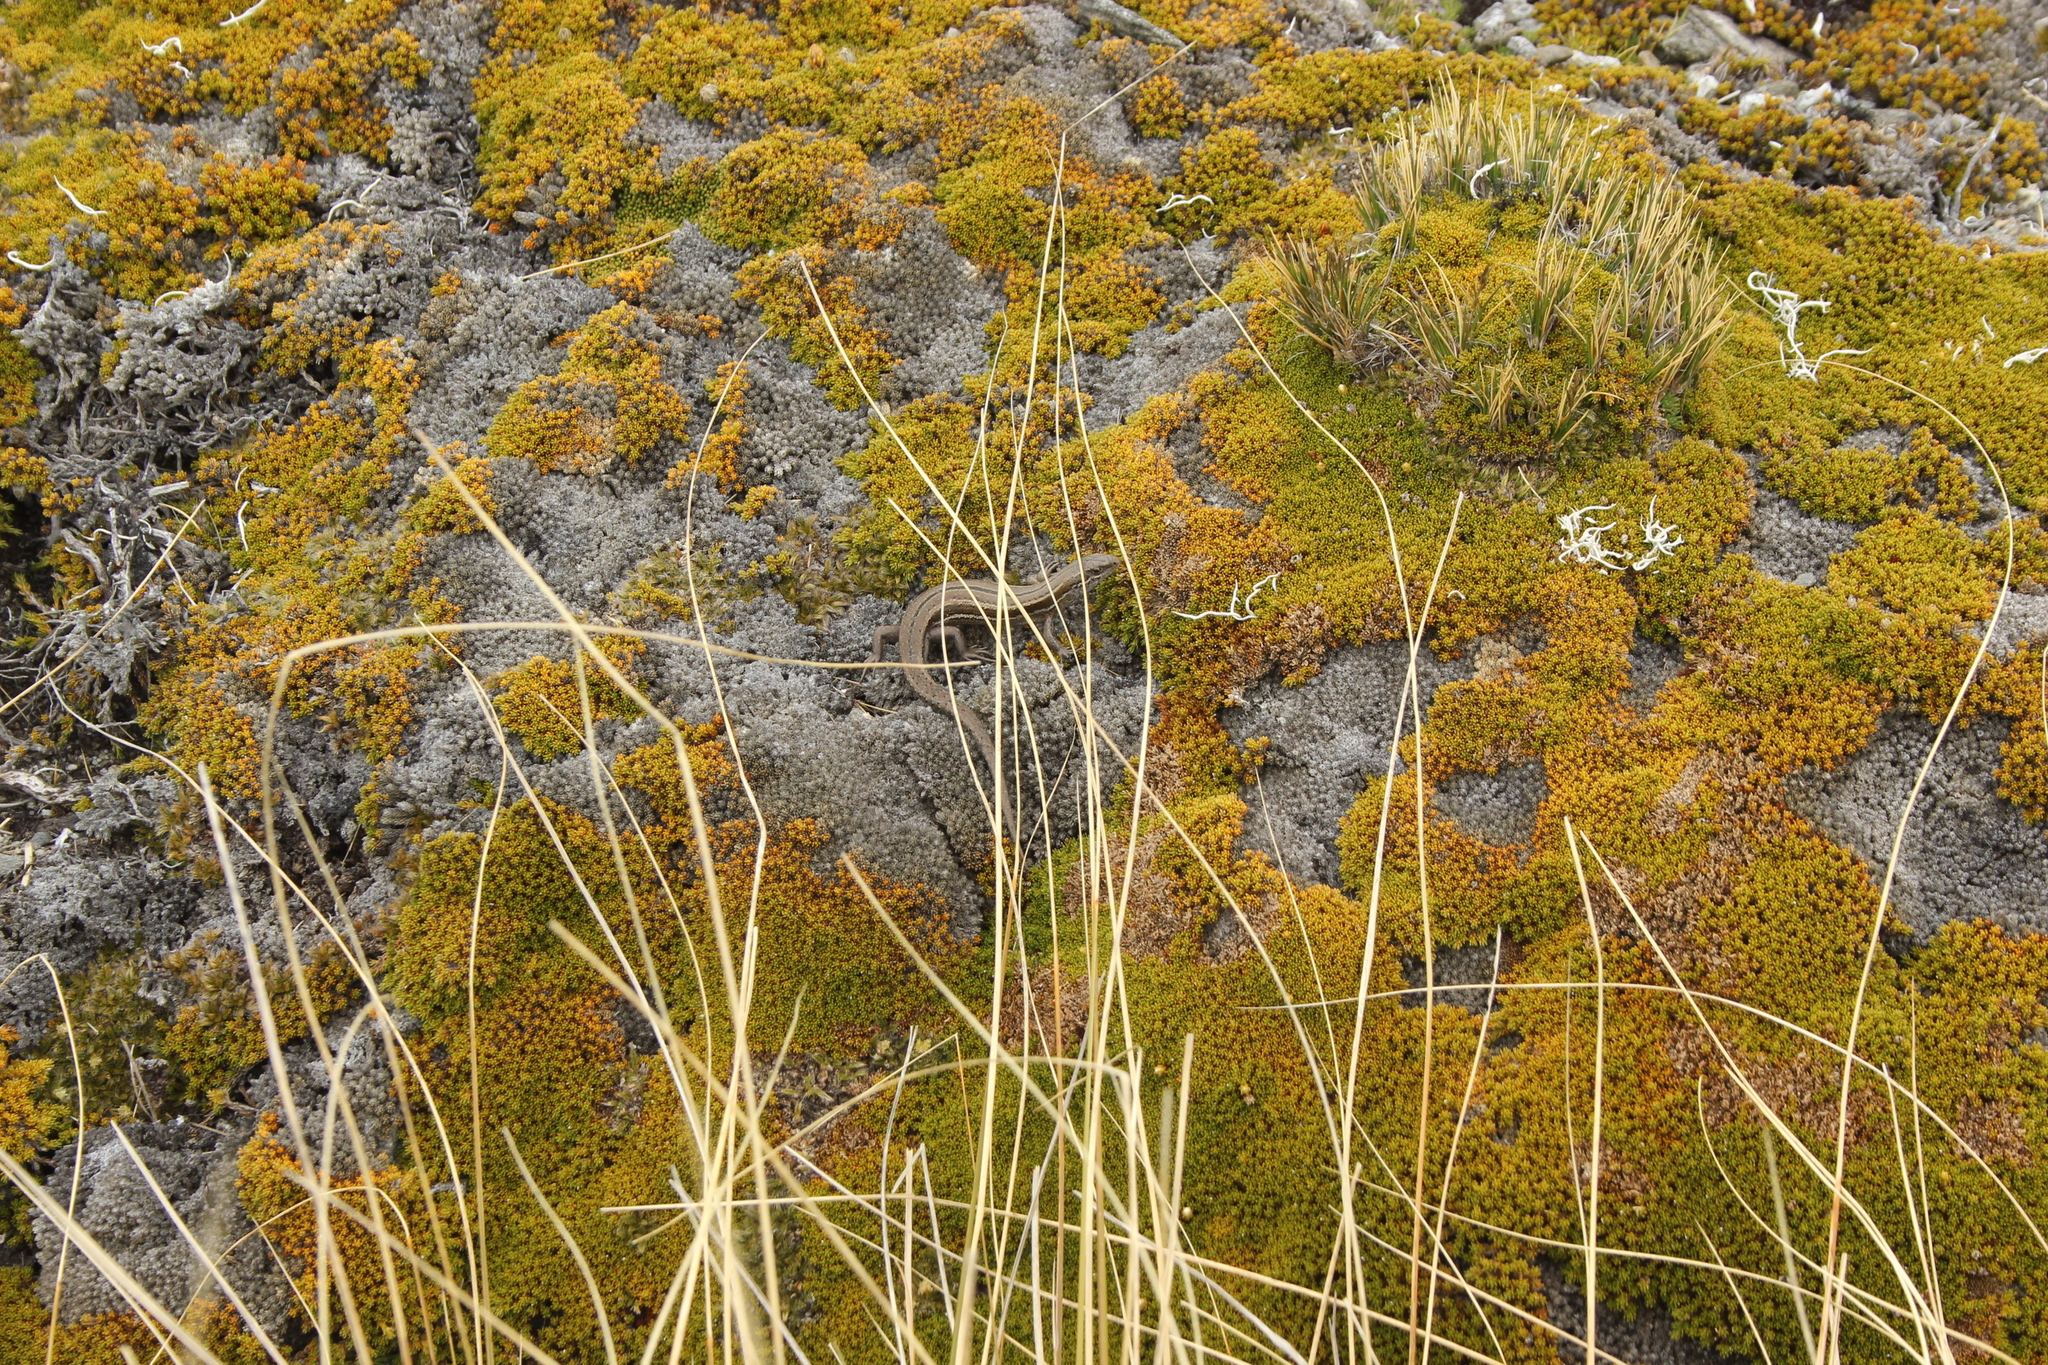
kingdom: Animalia
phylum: Chordata
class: Squamata
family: Scincidae
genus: Oligosoma
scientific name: Oligosoma toka
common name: Nevis skink
